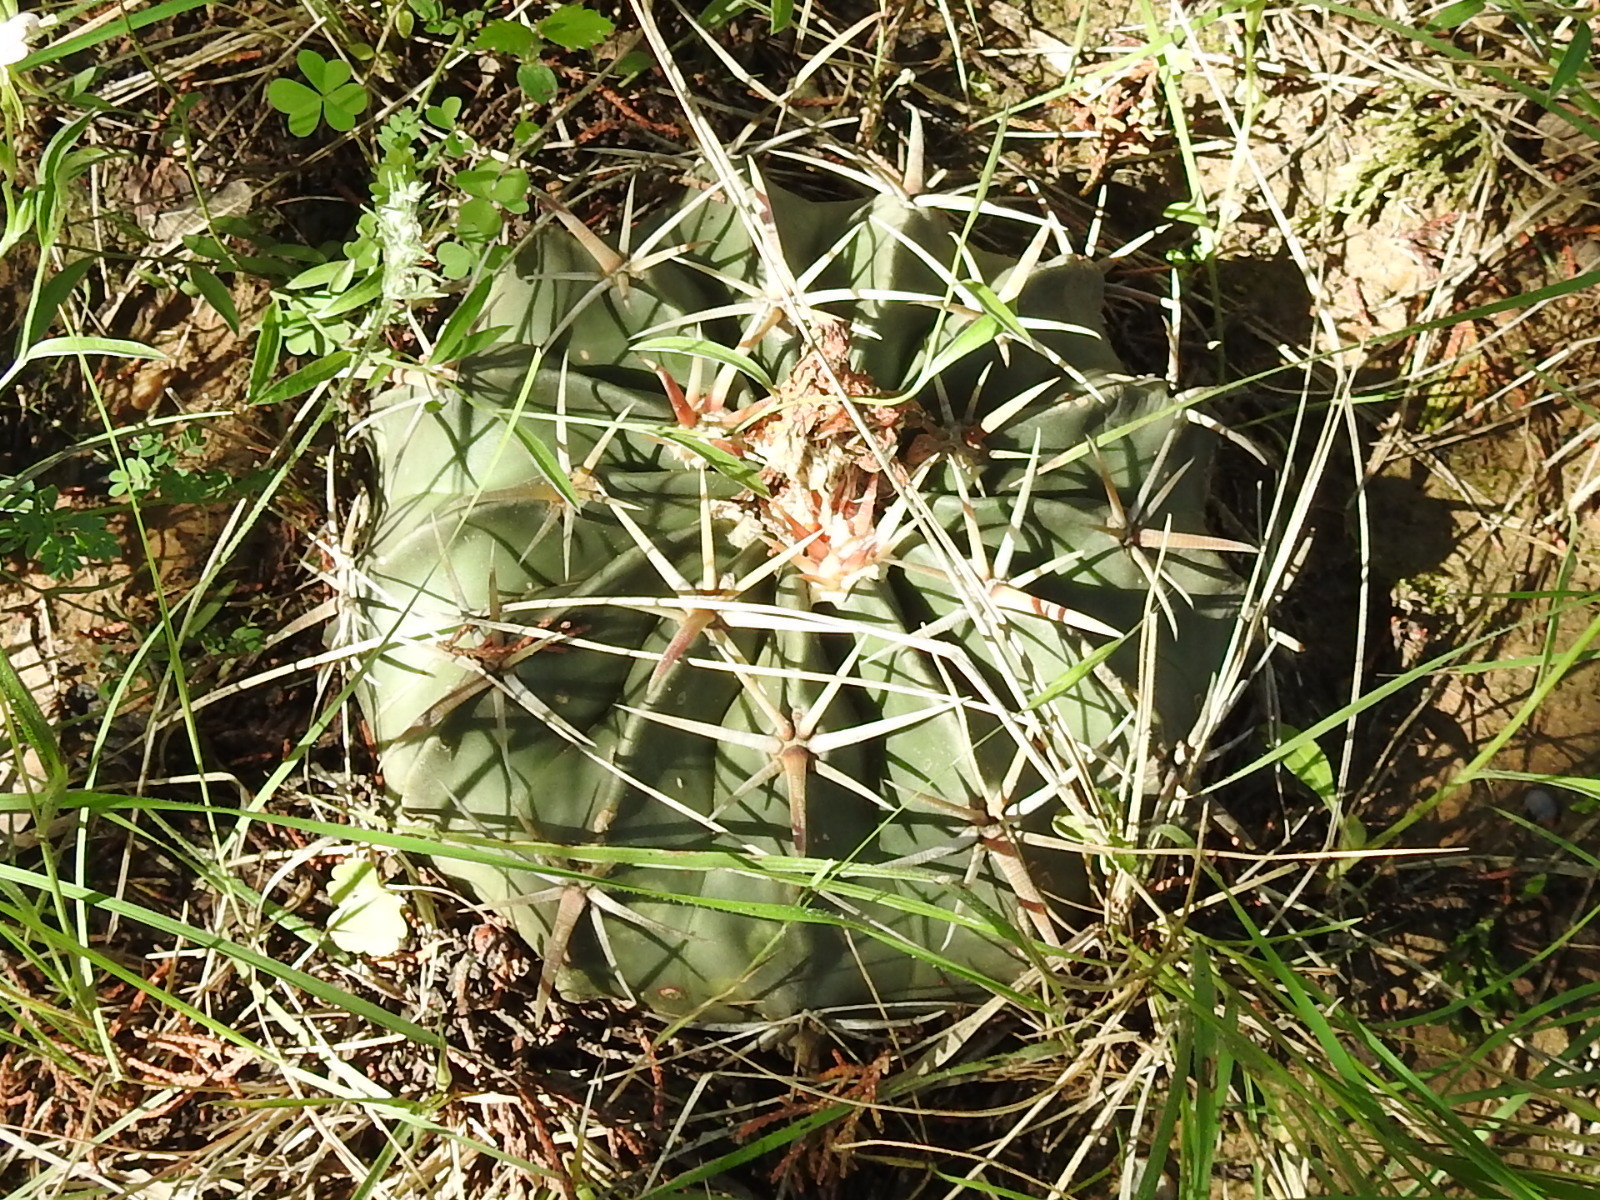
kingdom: Plantae
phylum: Tracheophyta
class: Magnoliopsida
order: Caryophyllales
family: Cactaceae
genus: Echinocactus
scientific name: Echinocactus texensis
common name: Devil's pincushion
